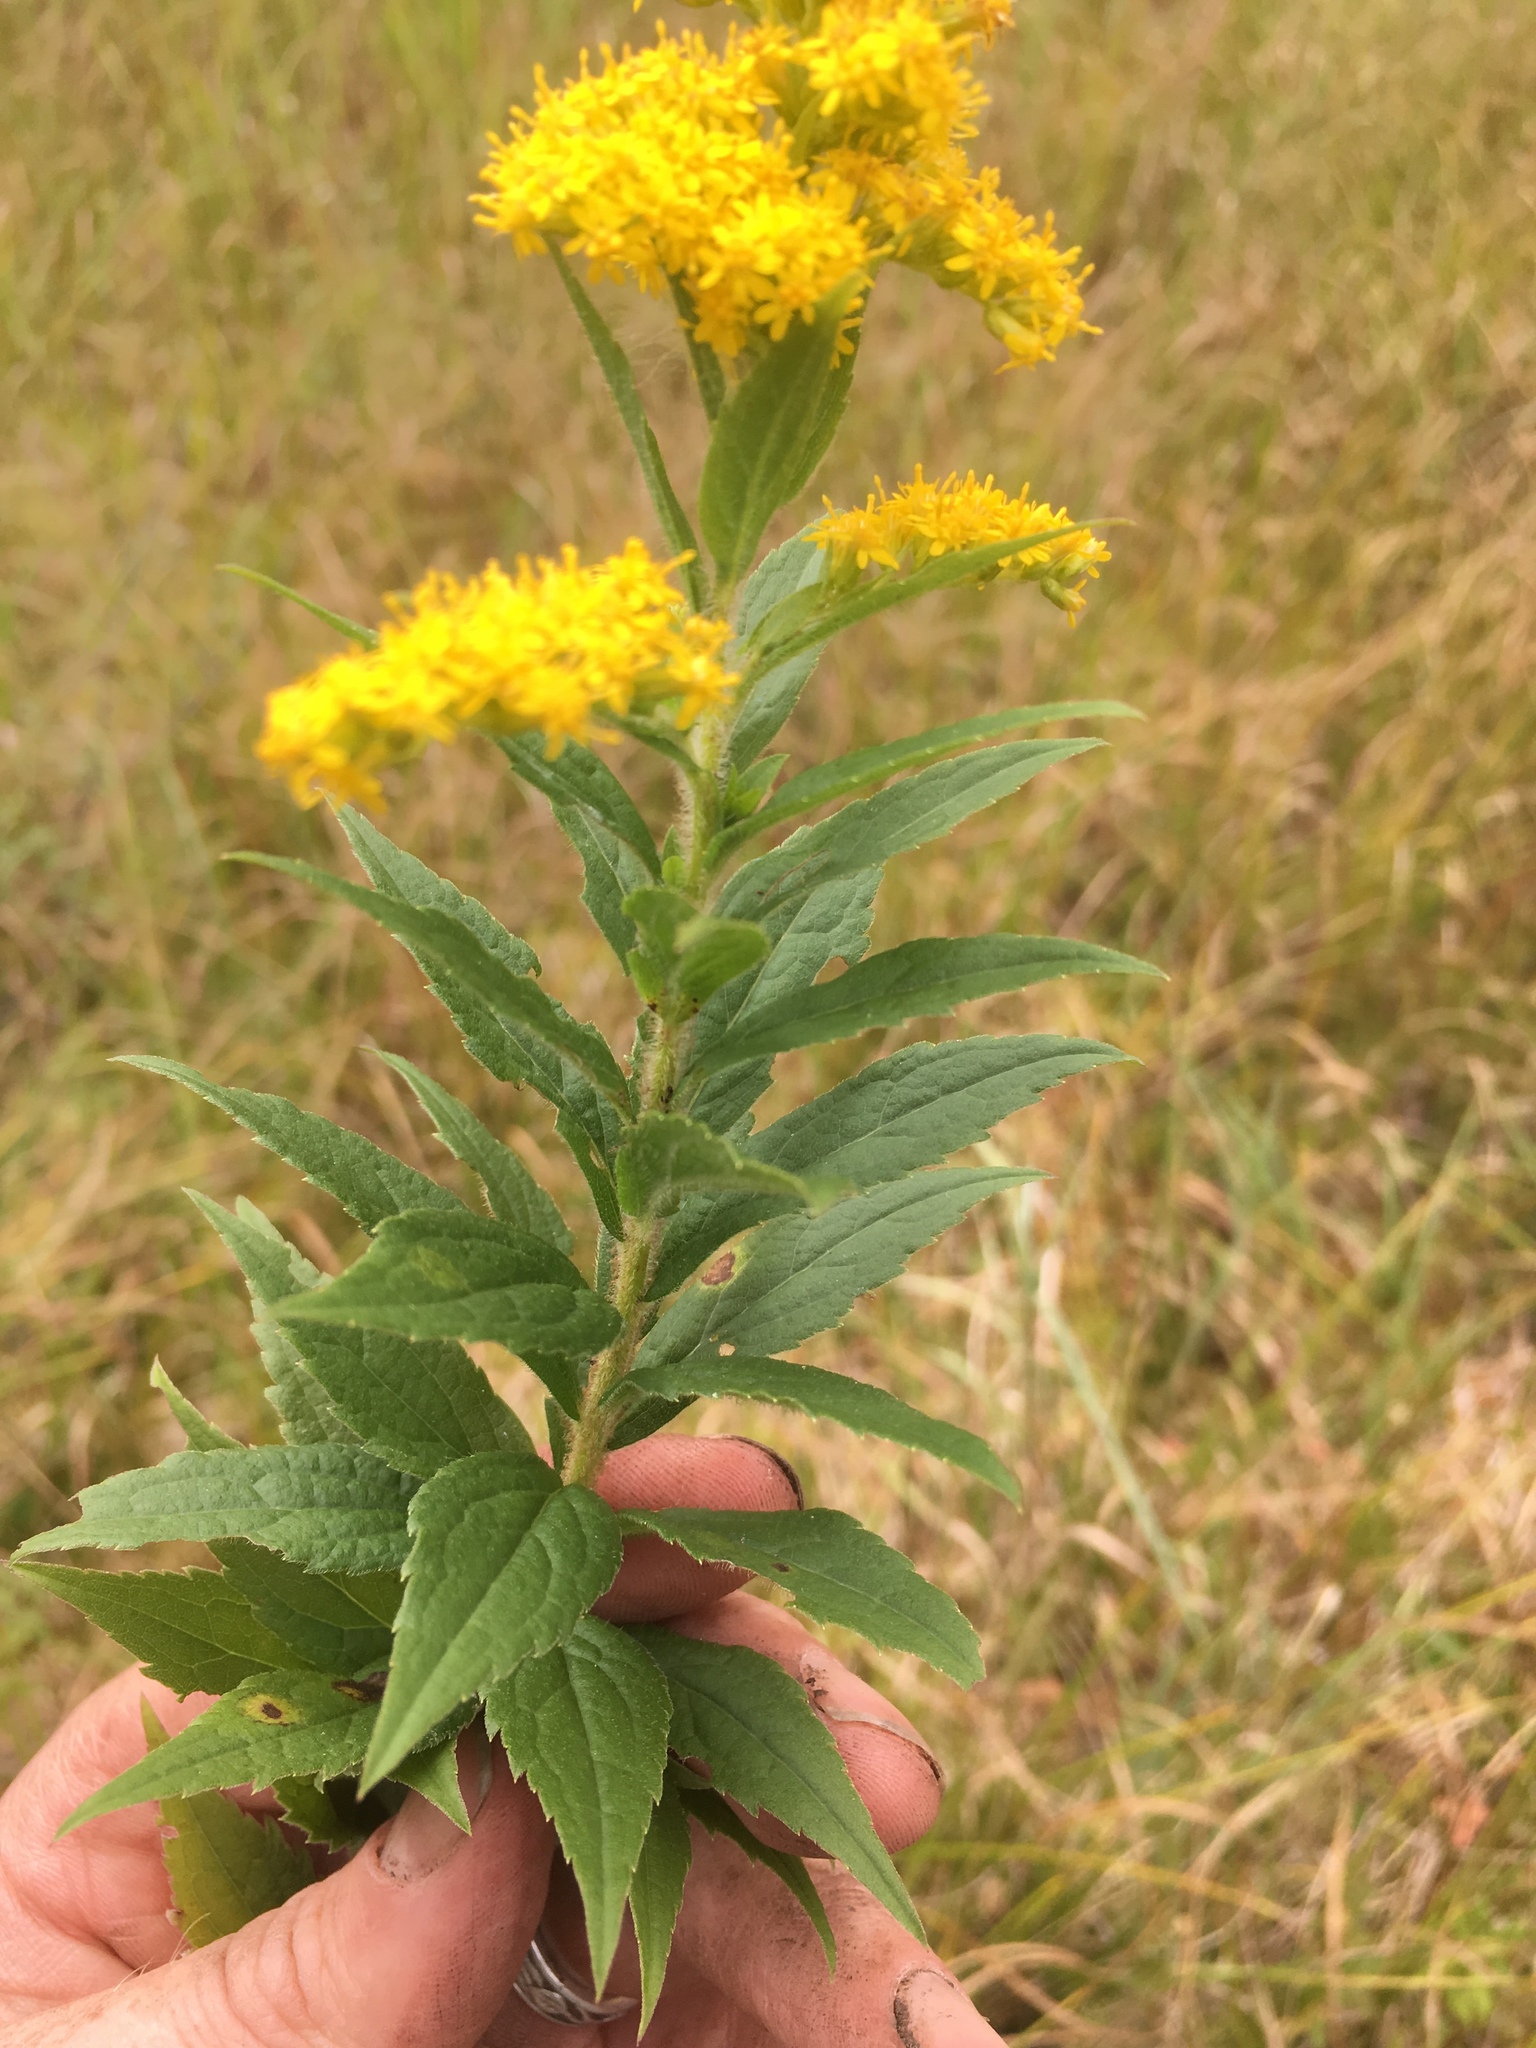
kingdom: Plantae
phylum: Tracheophyta
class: Magnoliopsida
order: Asterales
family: Asteraceae
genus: Solidago
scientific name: Solidago rugosa
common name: Rough-stemmed goldenrod
